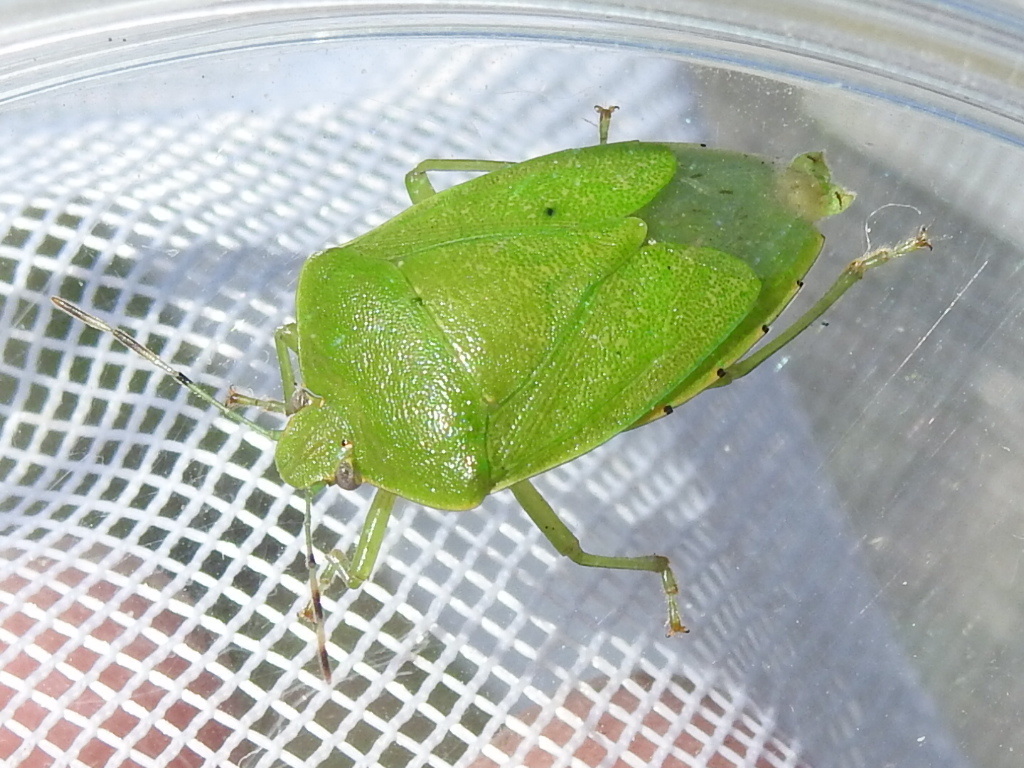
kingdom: Animalia
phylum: Arthropoda
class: Insecta
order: Hemiptera
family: Pentatomidae
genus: Chinavia
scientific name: Chinavia hilaris
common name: Green stink bug
